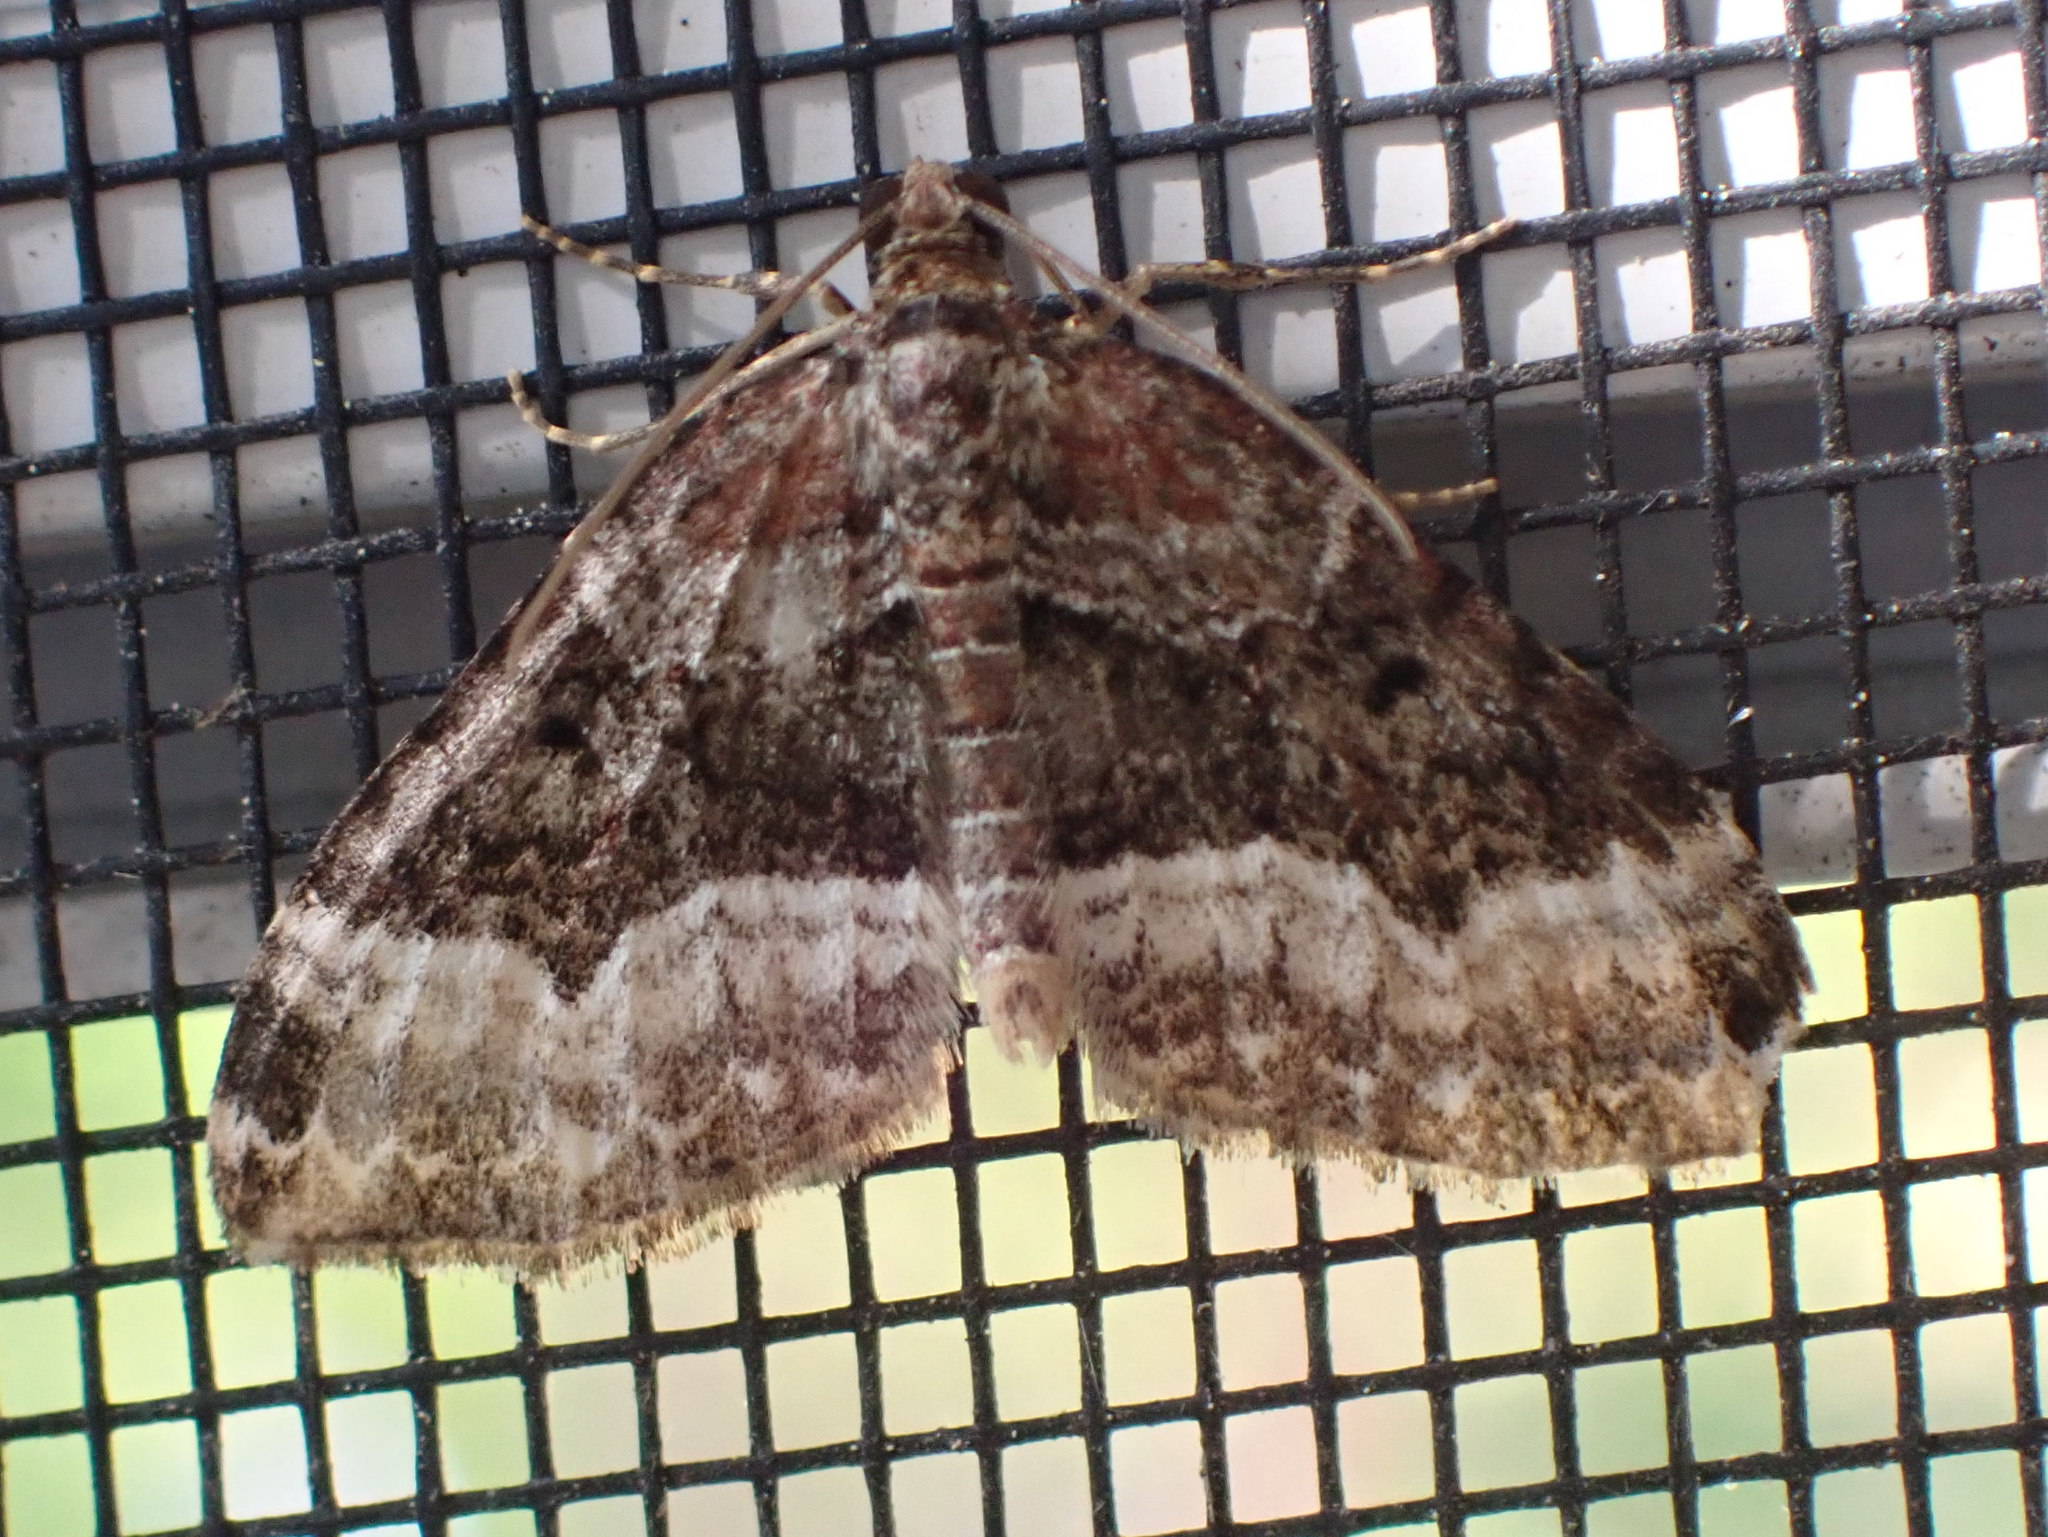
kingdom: Animalia
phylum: Arthropoda
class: Insecta
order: Lepidoptera
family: Geometridae
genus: Euphyia
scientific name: Euphyia intermediata
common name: Sharp-angled carpet
